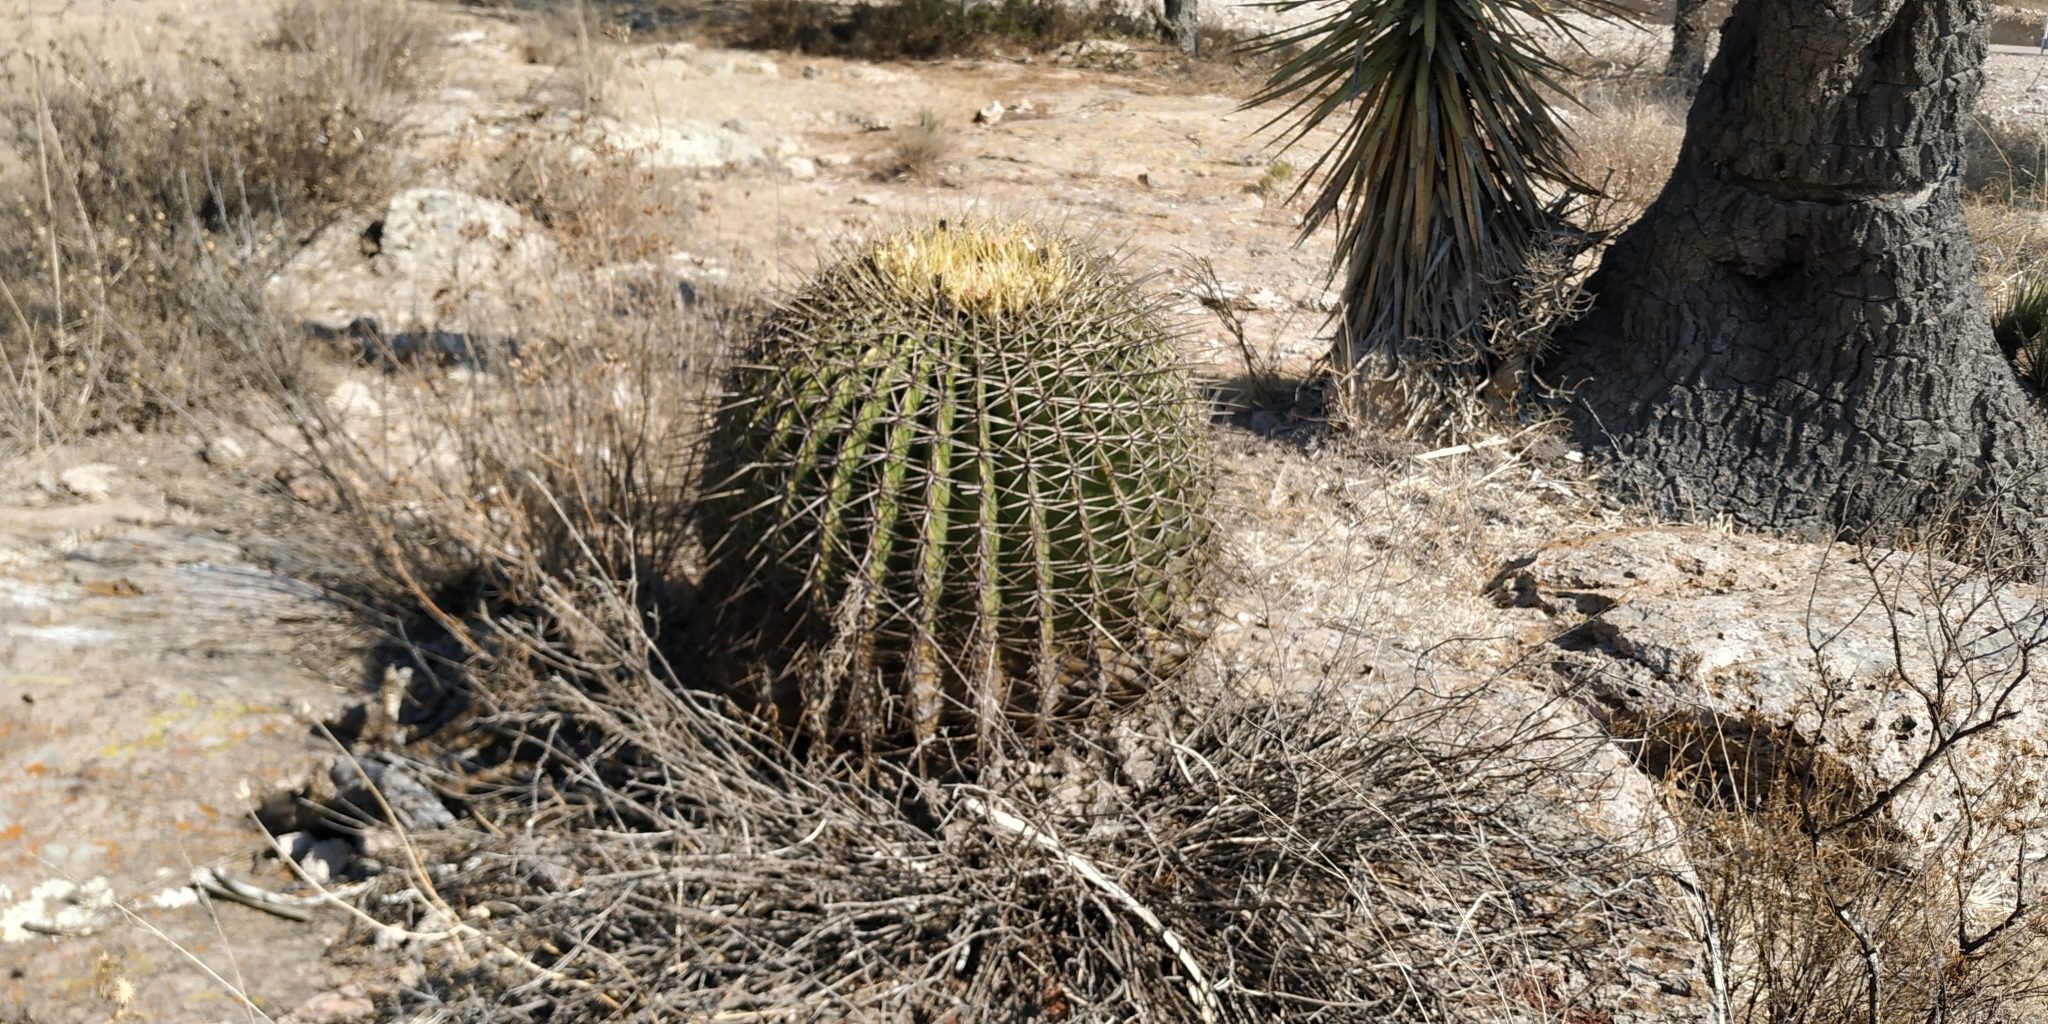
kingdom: Plantae
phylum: Tracheophyta
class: Magnoliopsida
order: Caryophyllales
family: Cactaceae
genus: Bisnaga
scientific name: Bisnaga histrix
